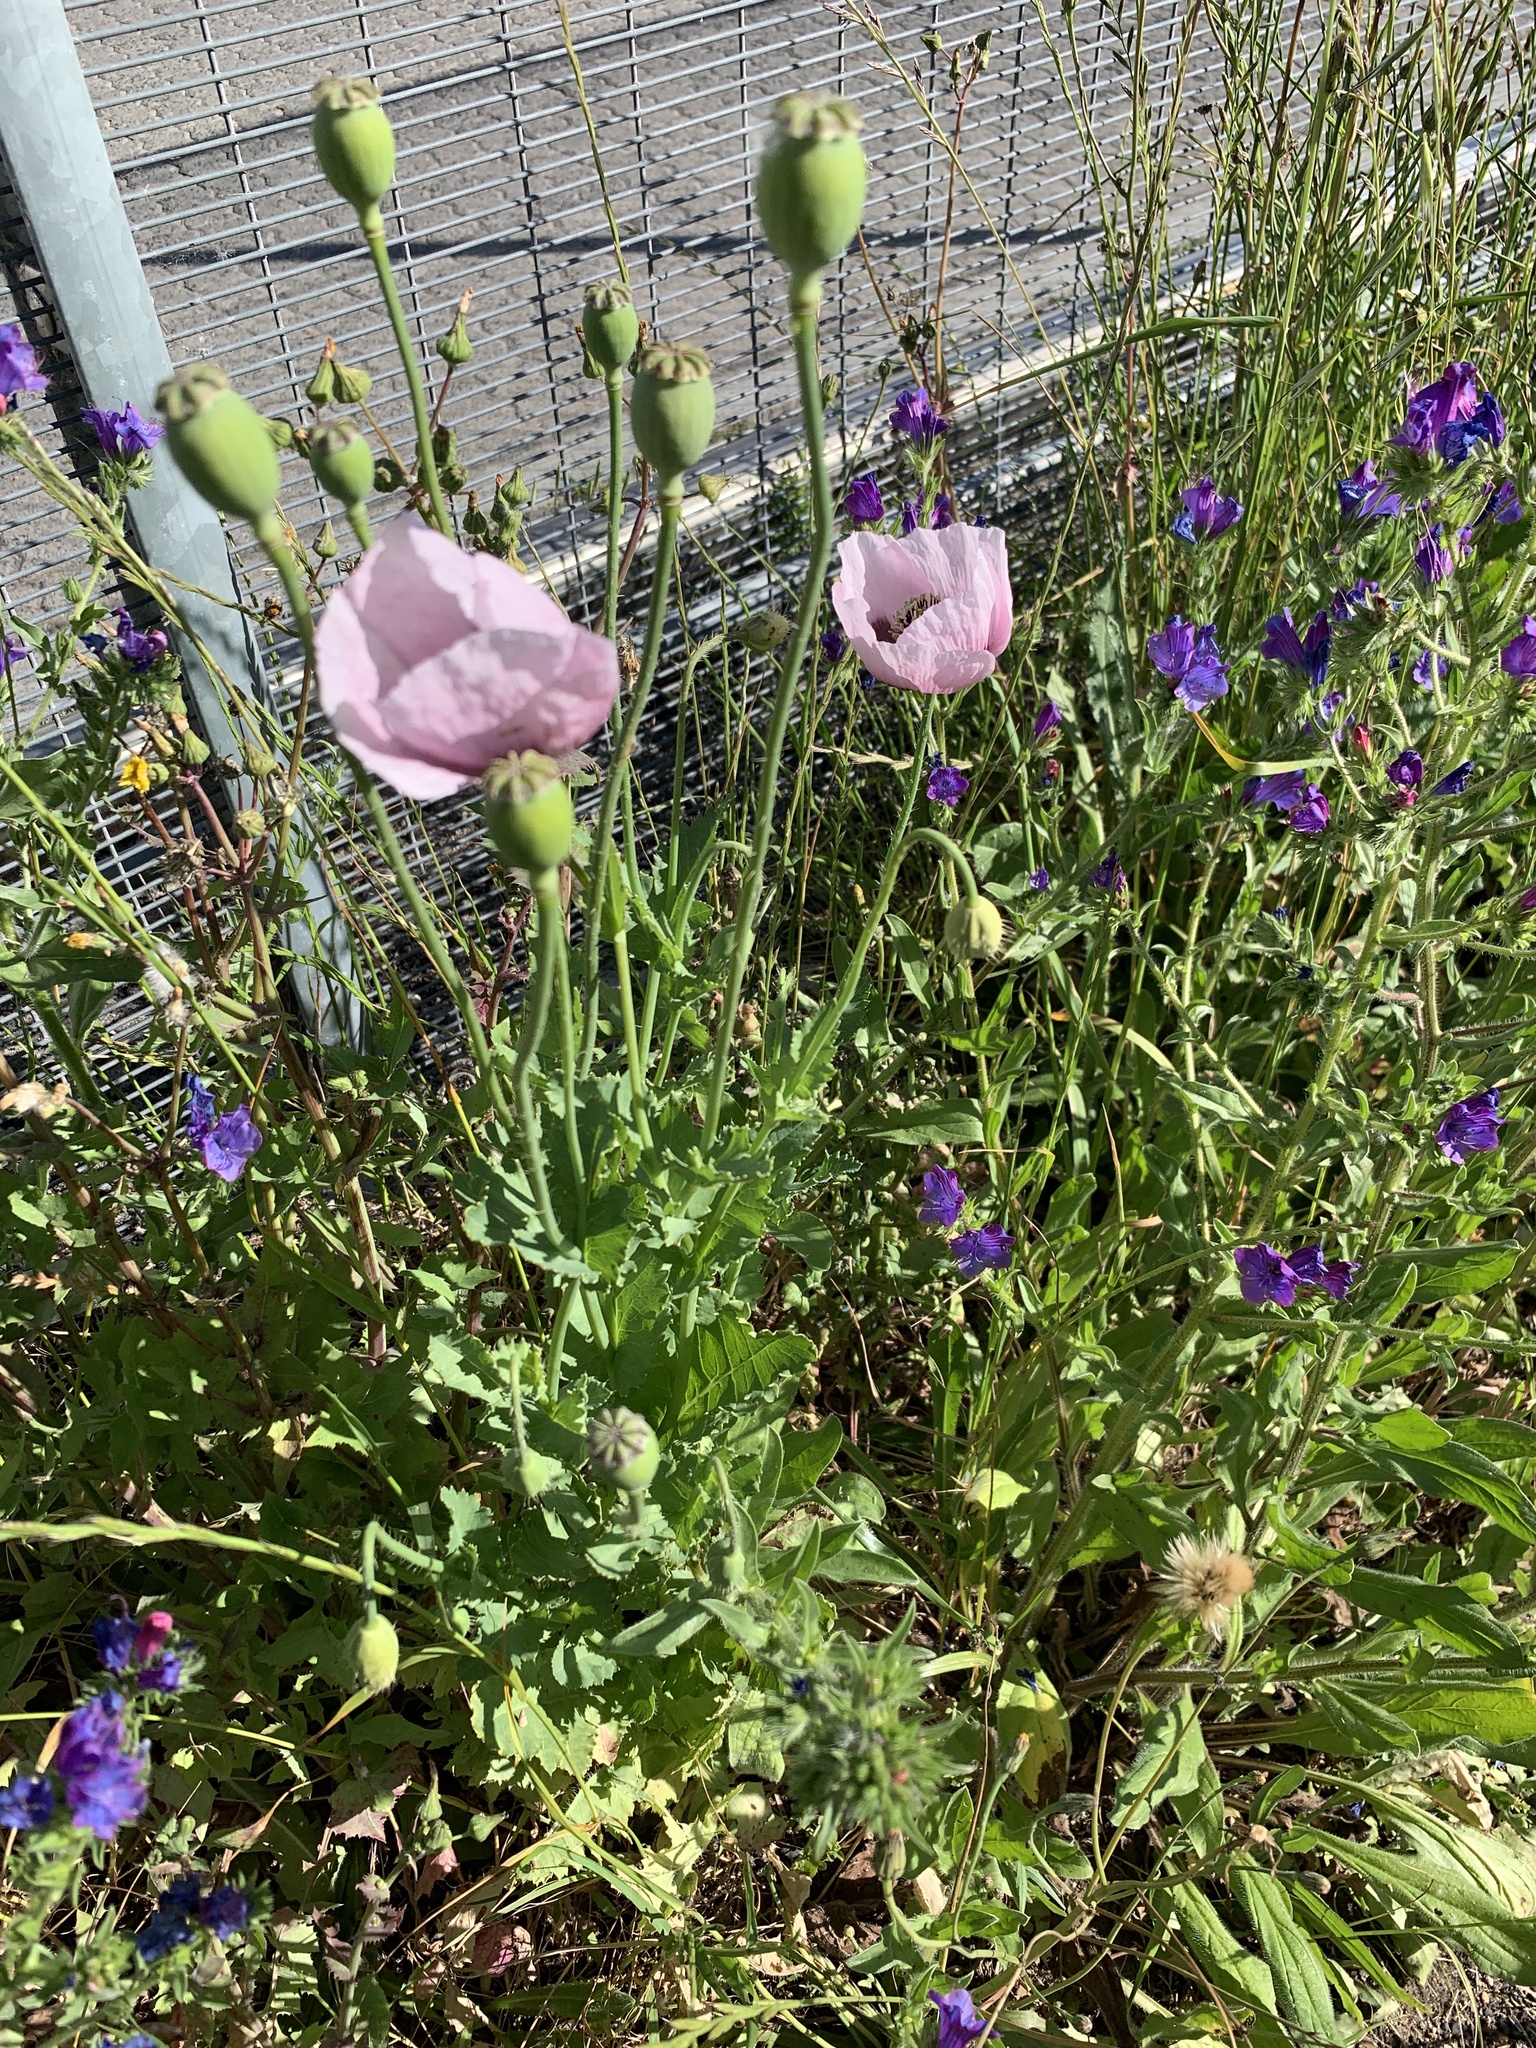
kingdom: Plantae
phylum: Tracheophyta
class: Magnoliopsida
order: Ranunculales
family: Papaveraceae
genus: Papaver
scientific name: Papaver somniferum
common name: Opium poppy
